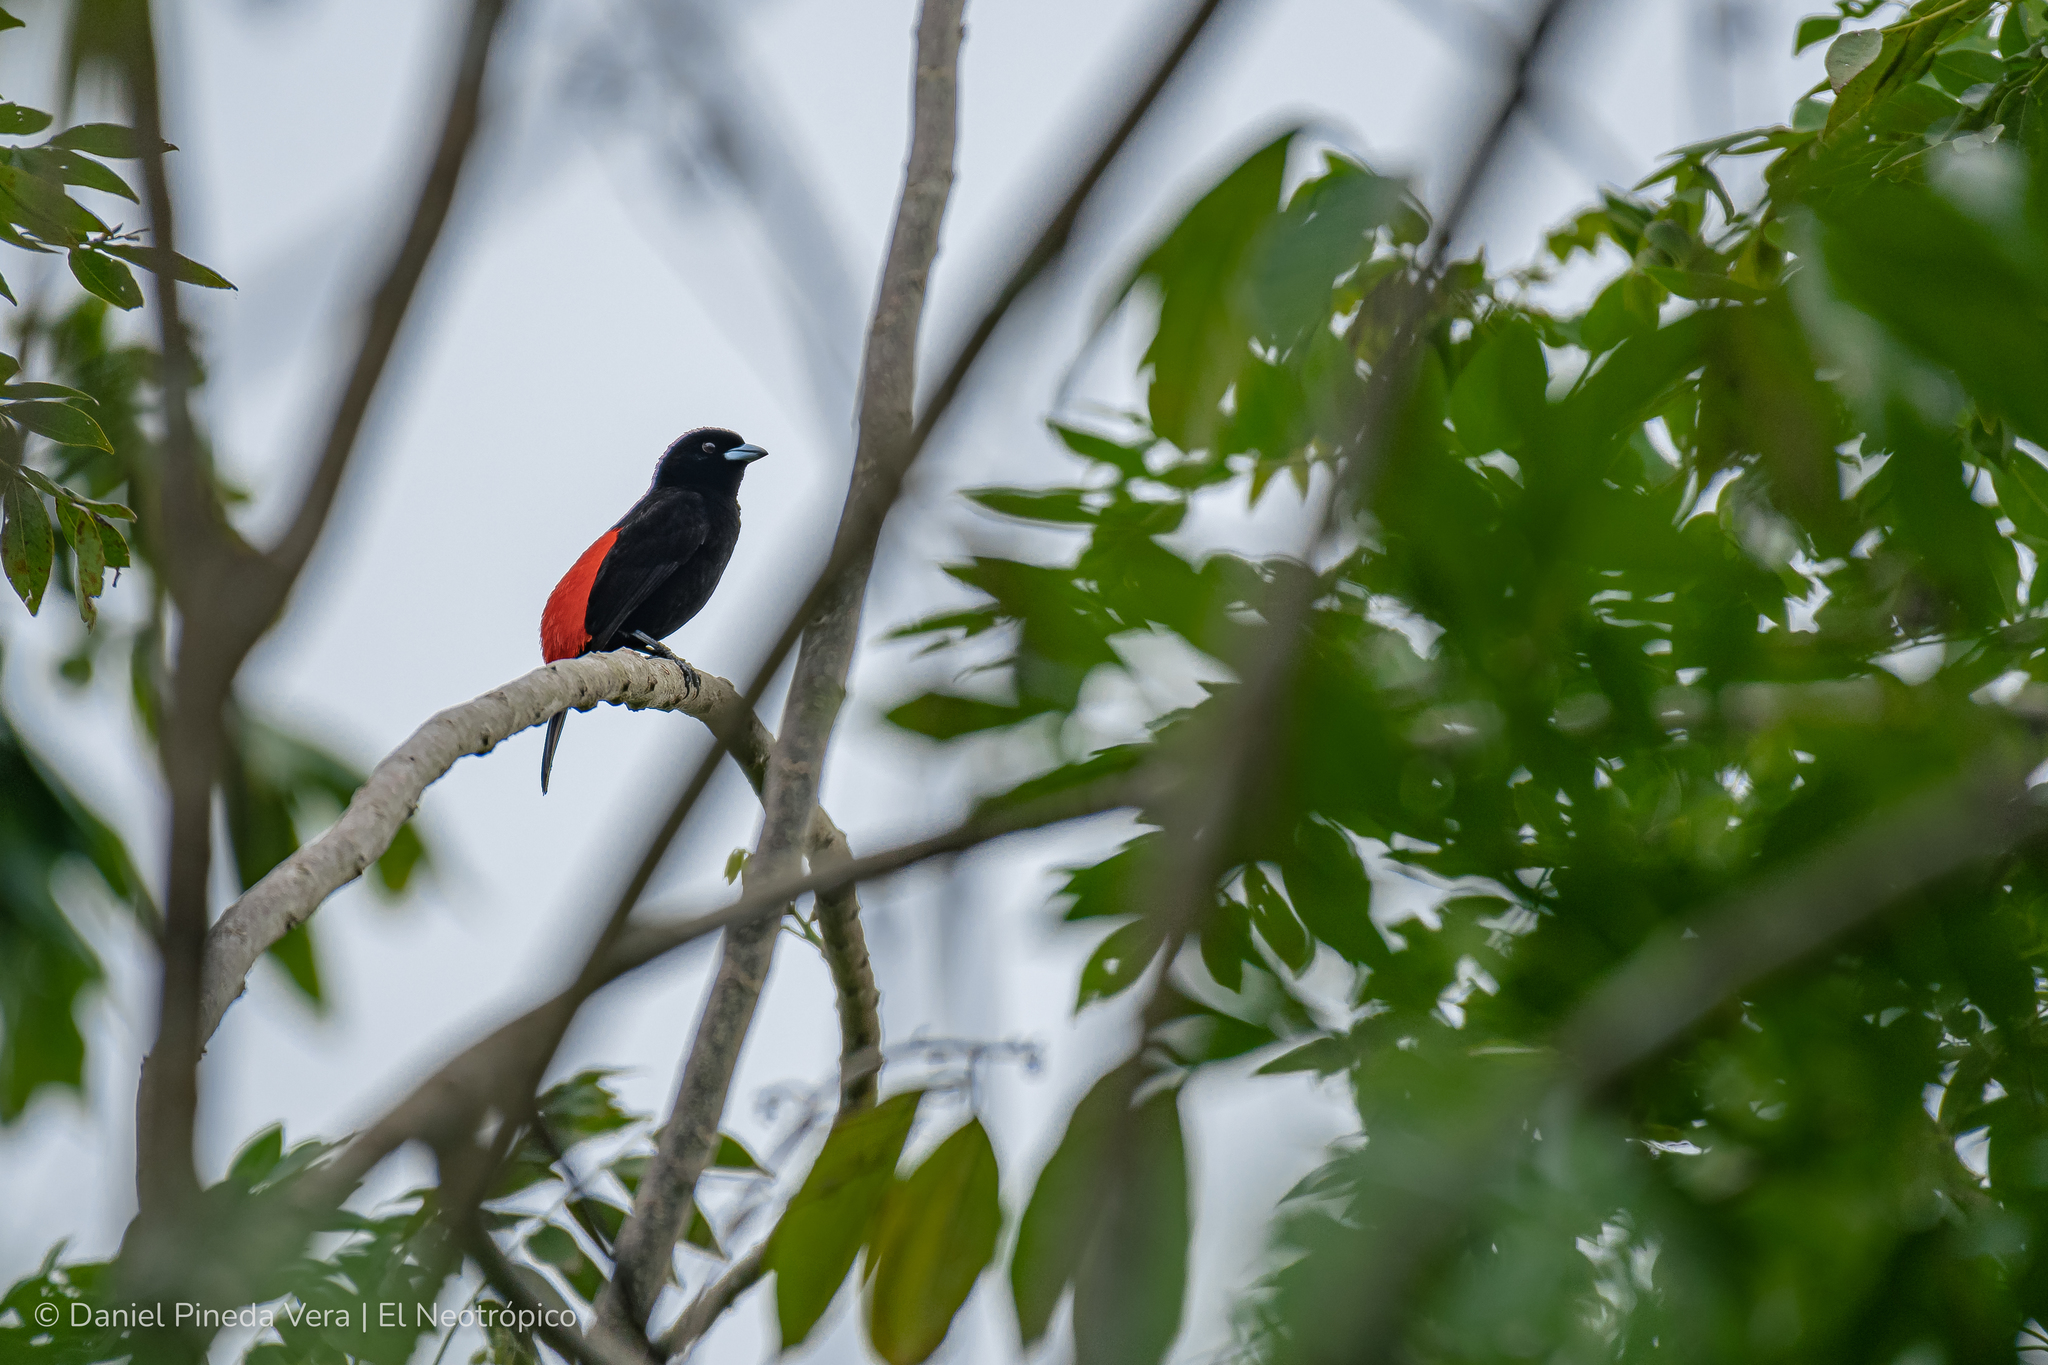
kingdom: Animalia
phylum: Chordata
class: Aves
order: Passeriformes
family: Thraupidae
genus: Ramphocelus
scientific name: Ramphocelus passerinii
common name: Passerini's tanager
